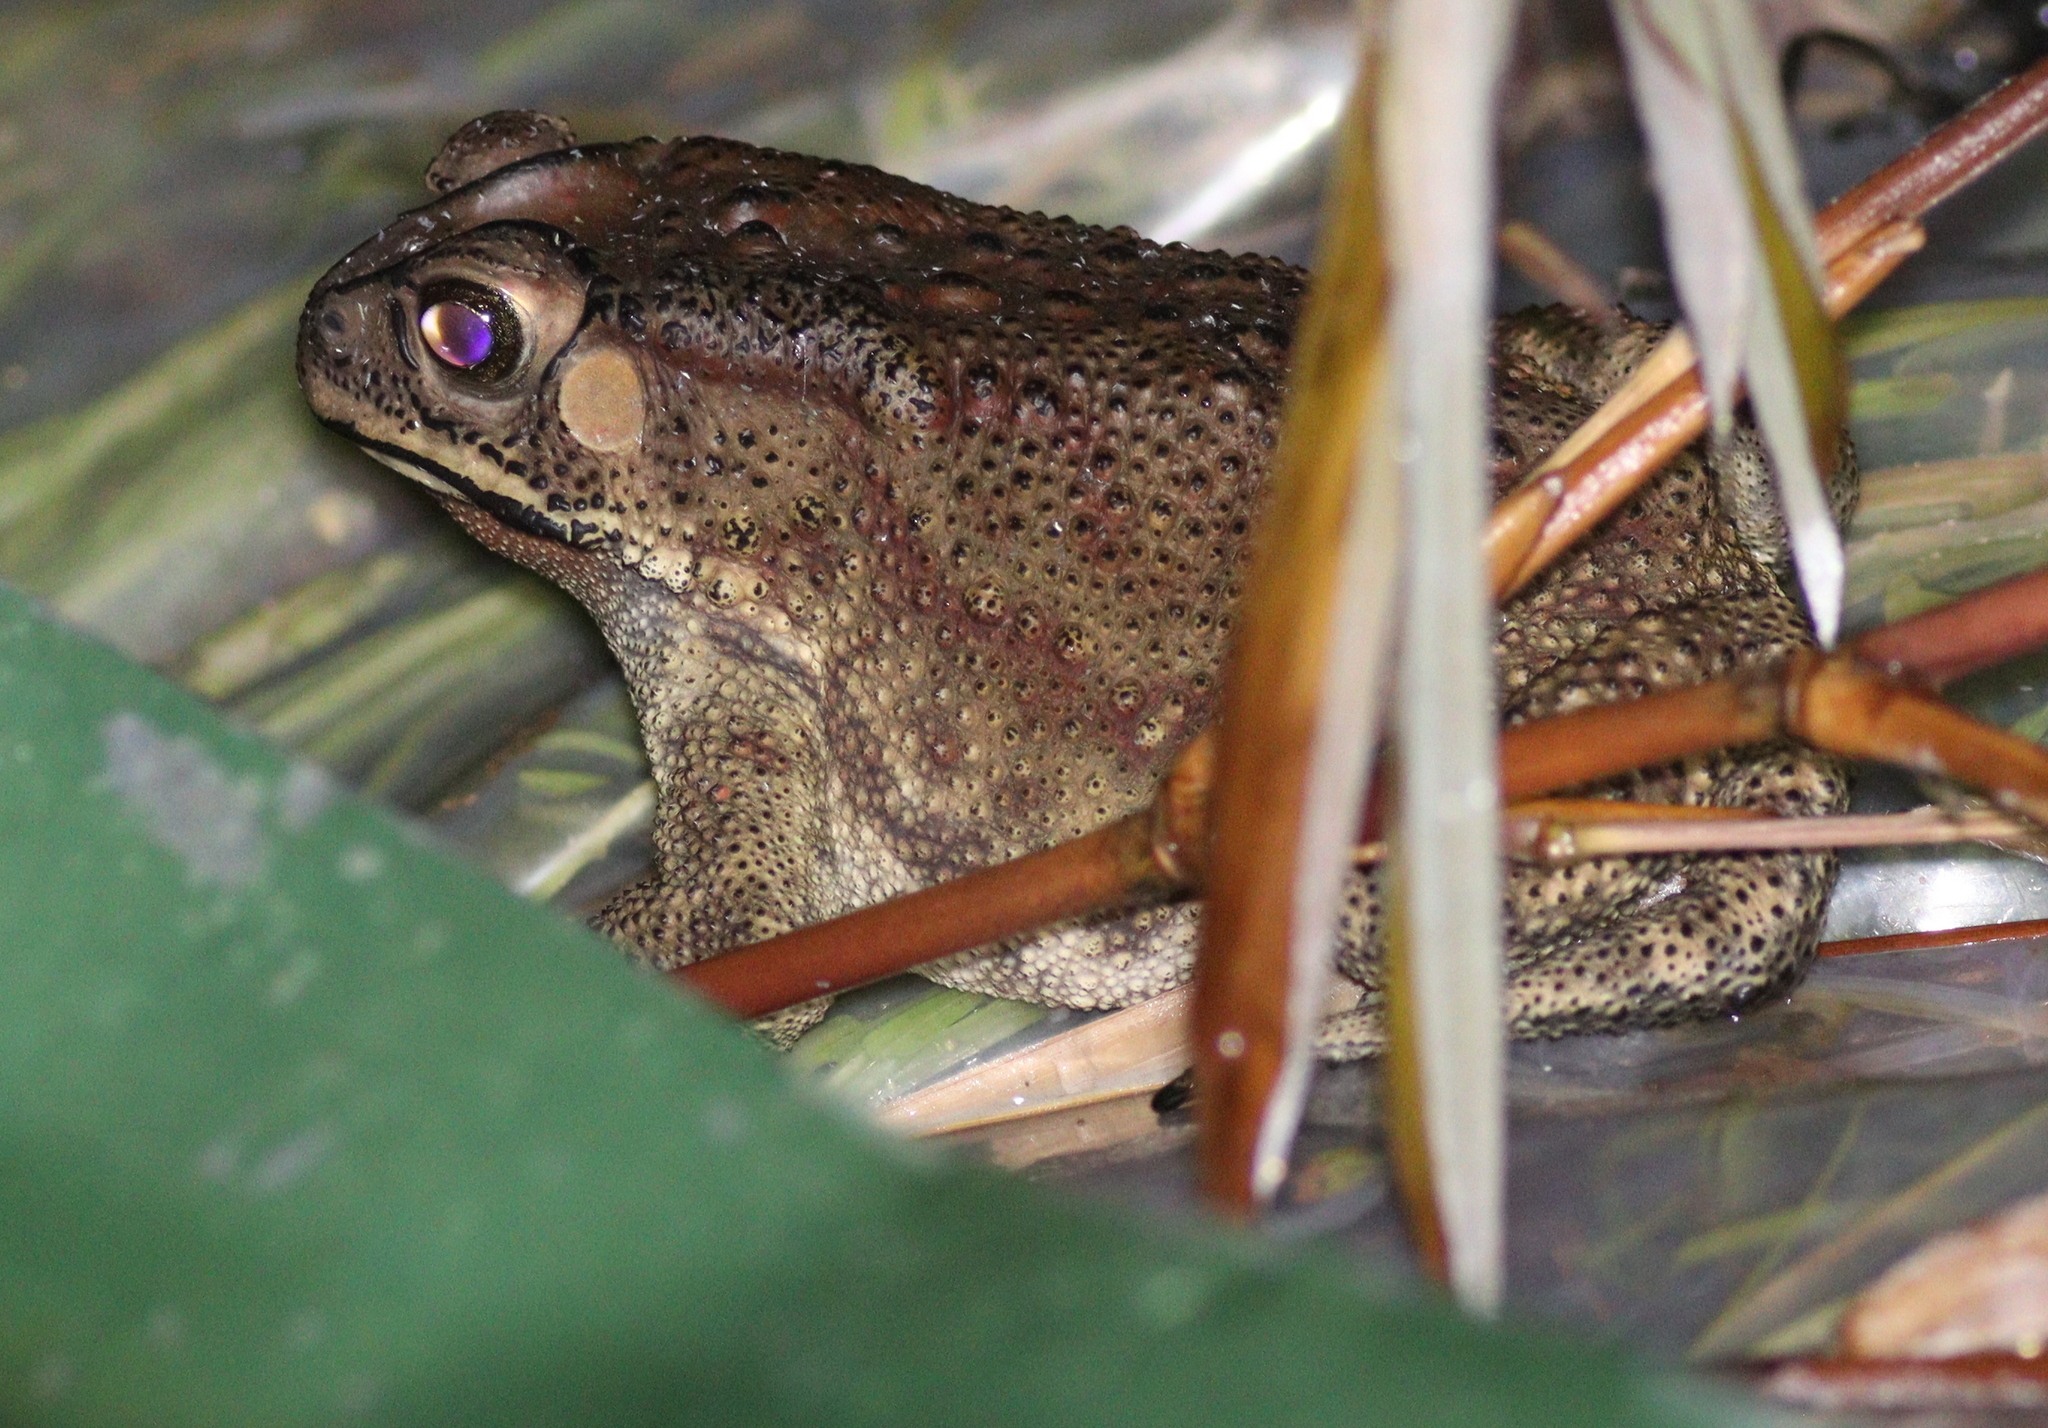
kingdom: Animalia
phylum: Chordata
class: Amphibia
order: Anura
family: Bufonidae
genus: Duttaphrynus
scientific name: Duttaphrynus melanostictus
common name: Common sunda toad
